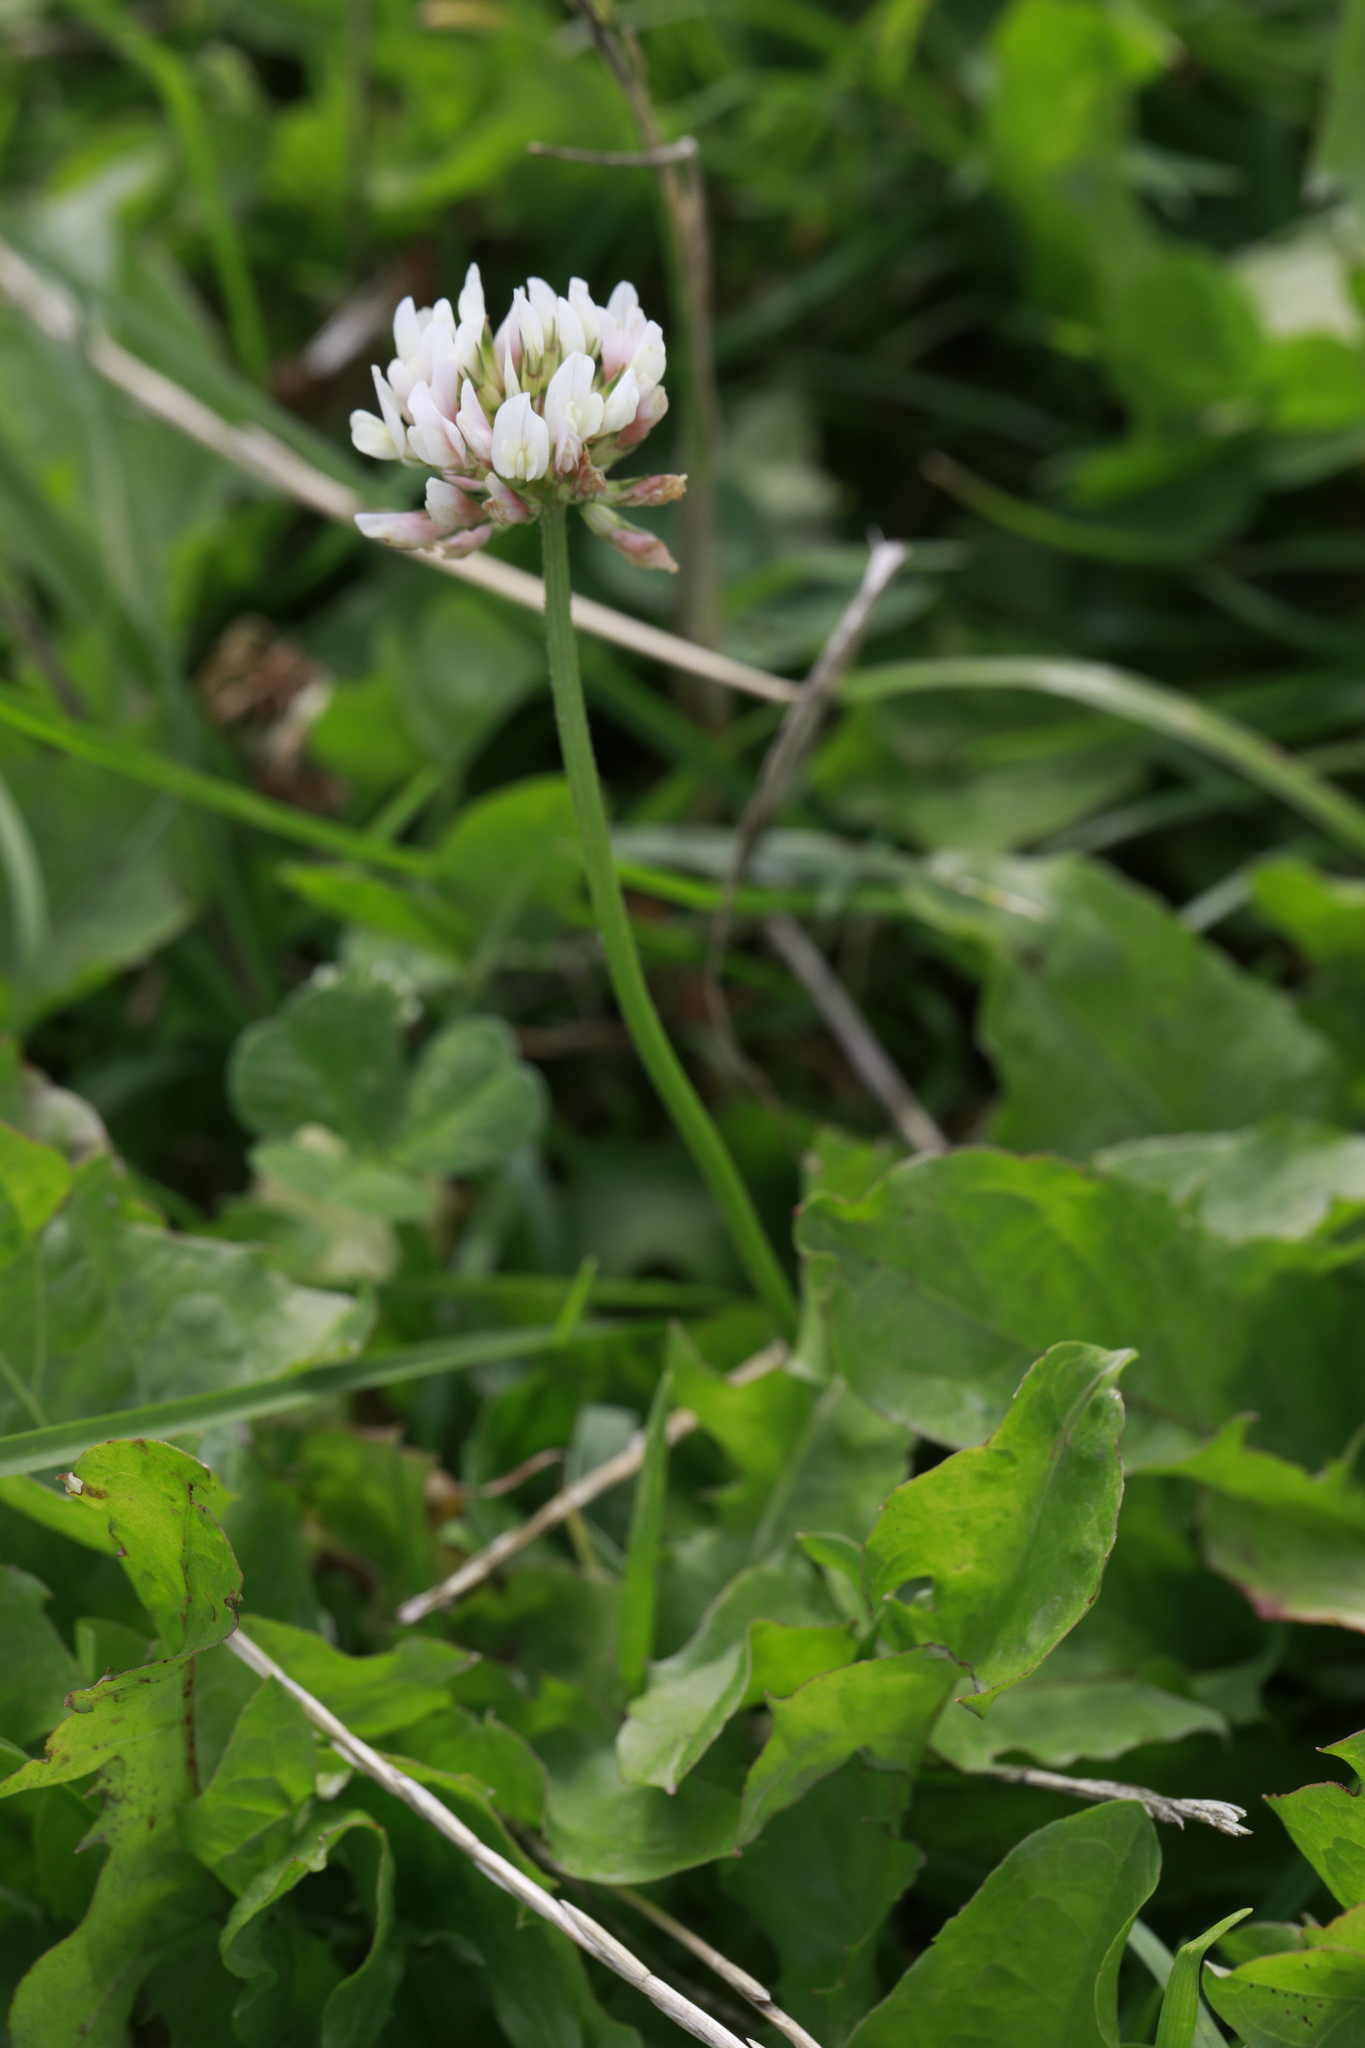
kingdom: Plantae
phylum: Tracheophyta
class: Magnoliopsida
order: Fabales
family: Fabaceae
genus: Trifolium
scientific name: Trifolium repens
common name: White clover
